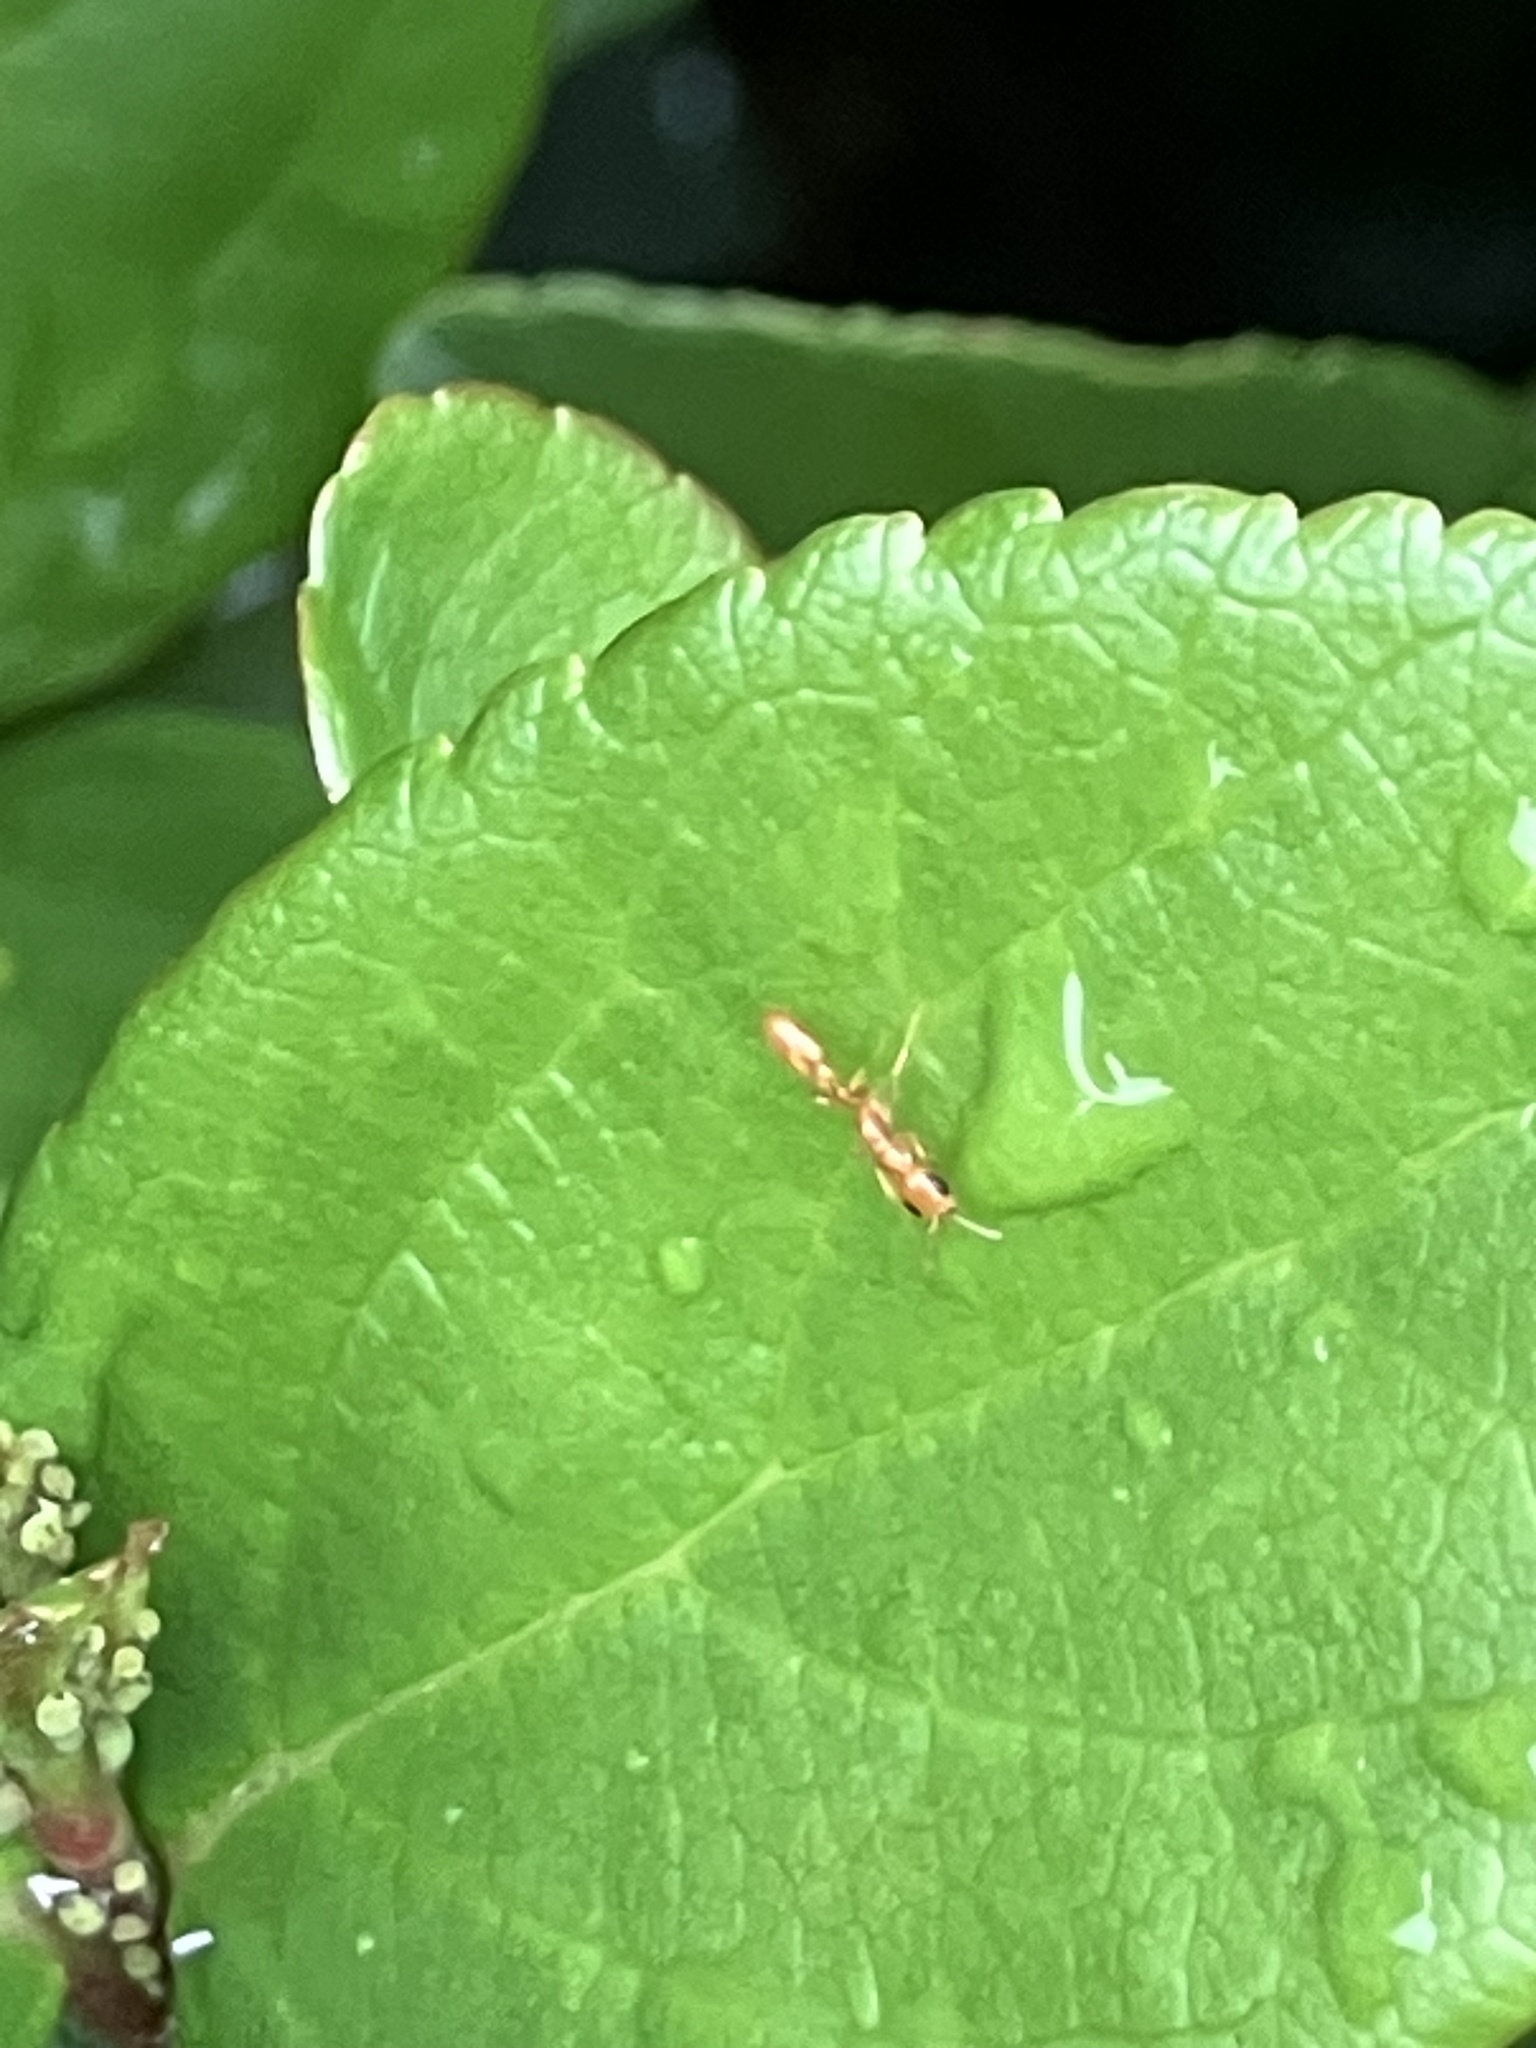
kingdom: Animalia
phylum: Arthropoda
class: Insecta
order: Hymenoptera
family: Formicidae
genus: Pseudomyrmex
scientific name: Pseudomyrmex
